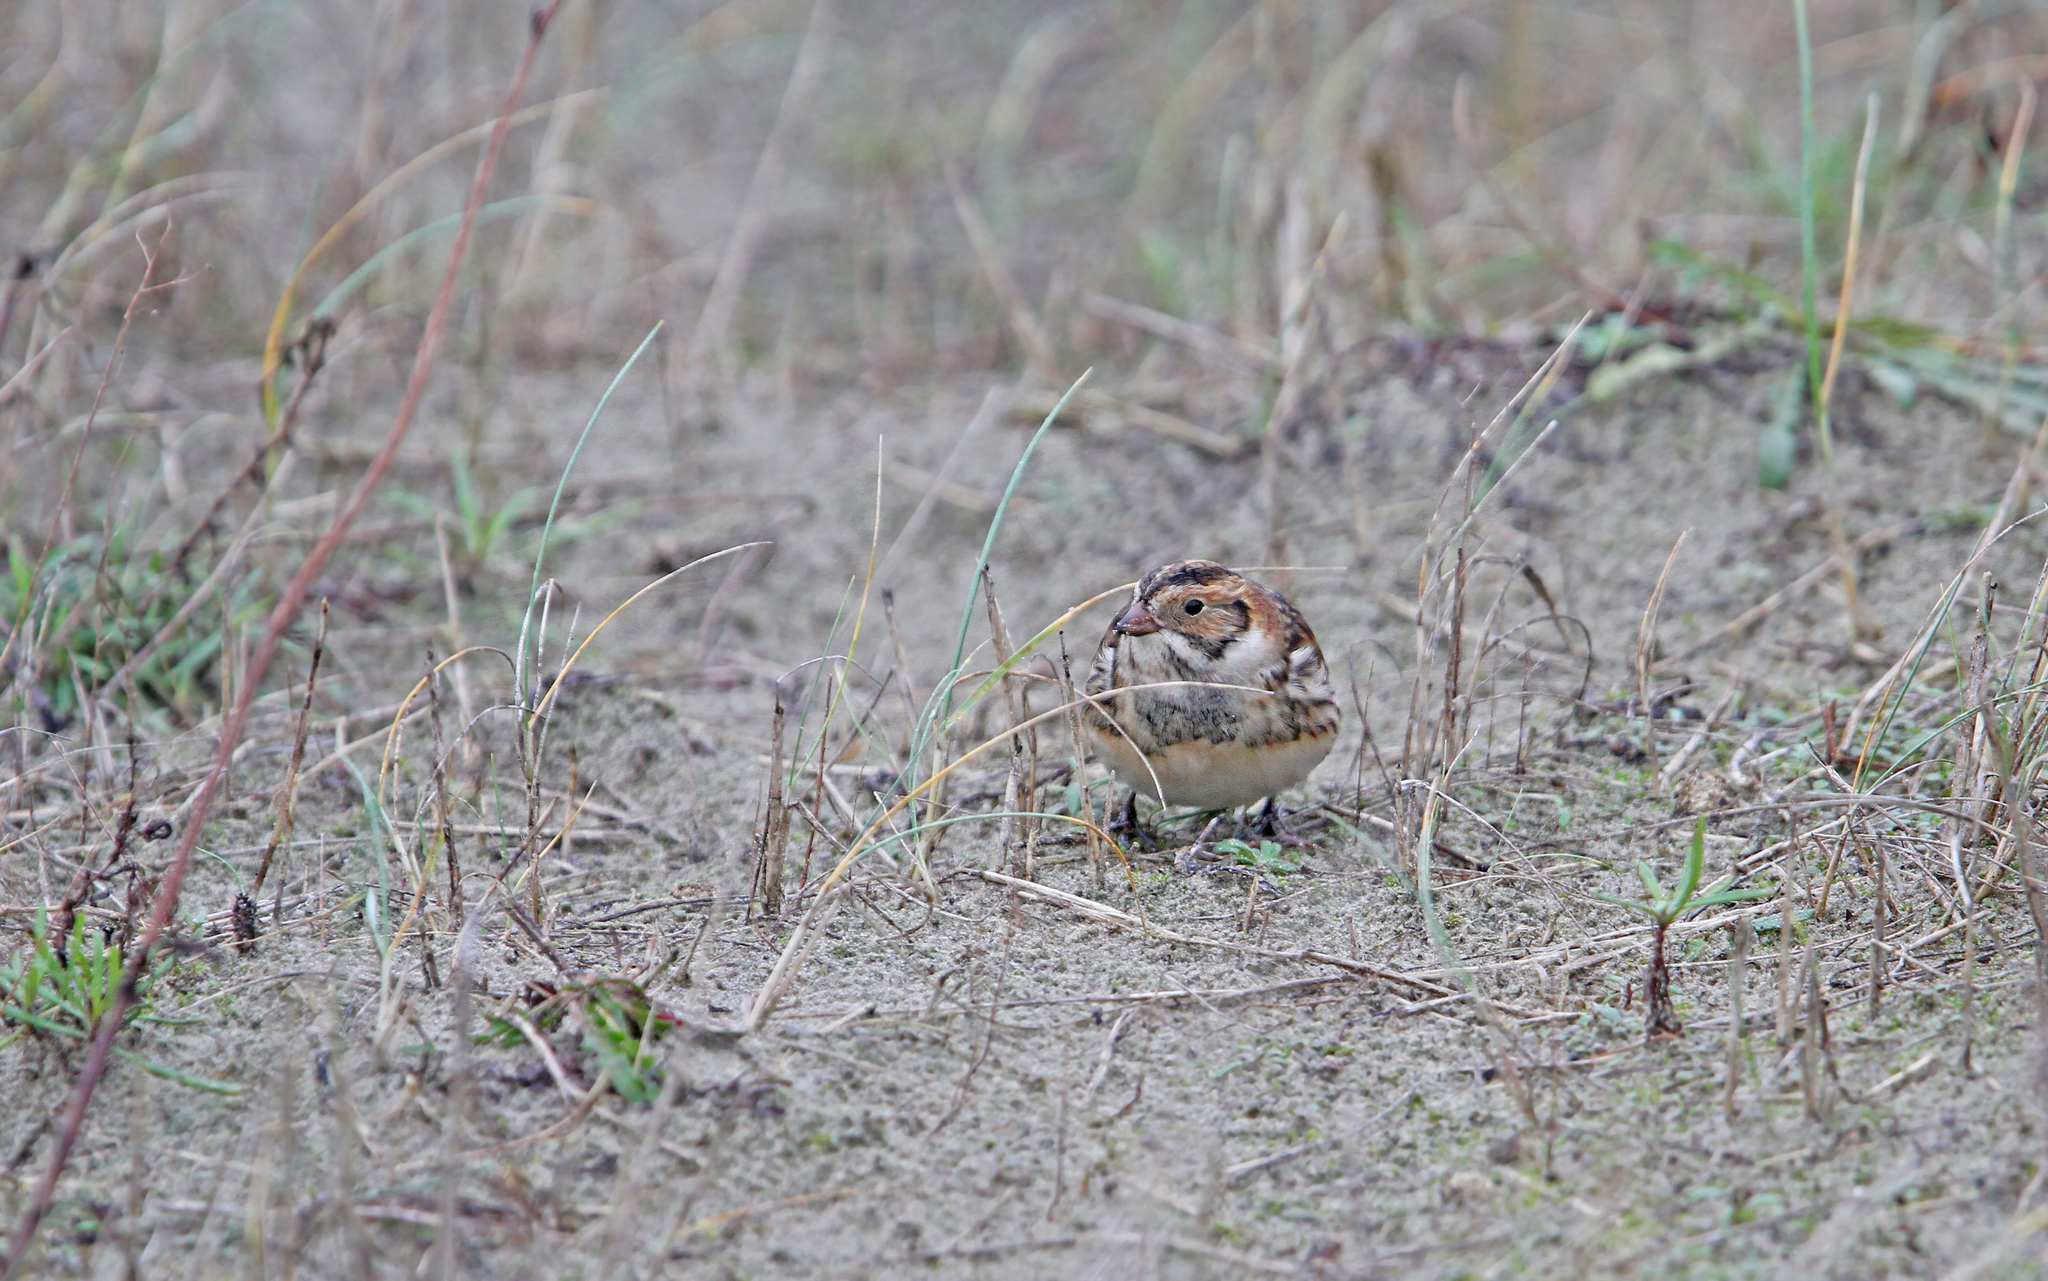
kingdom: Animalia
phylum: Chordata
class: Aves
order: Passeriformes
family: Calcariidae
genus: Calcarius
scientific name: Calcarius lapponicus
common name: Lapland longspur
